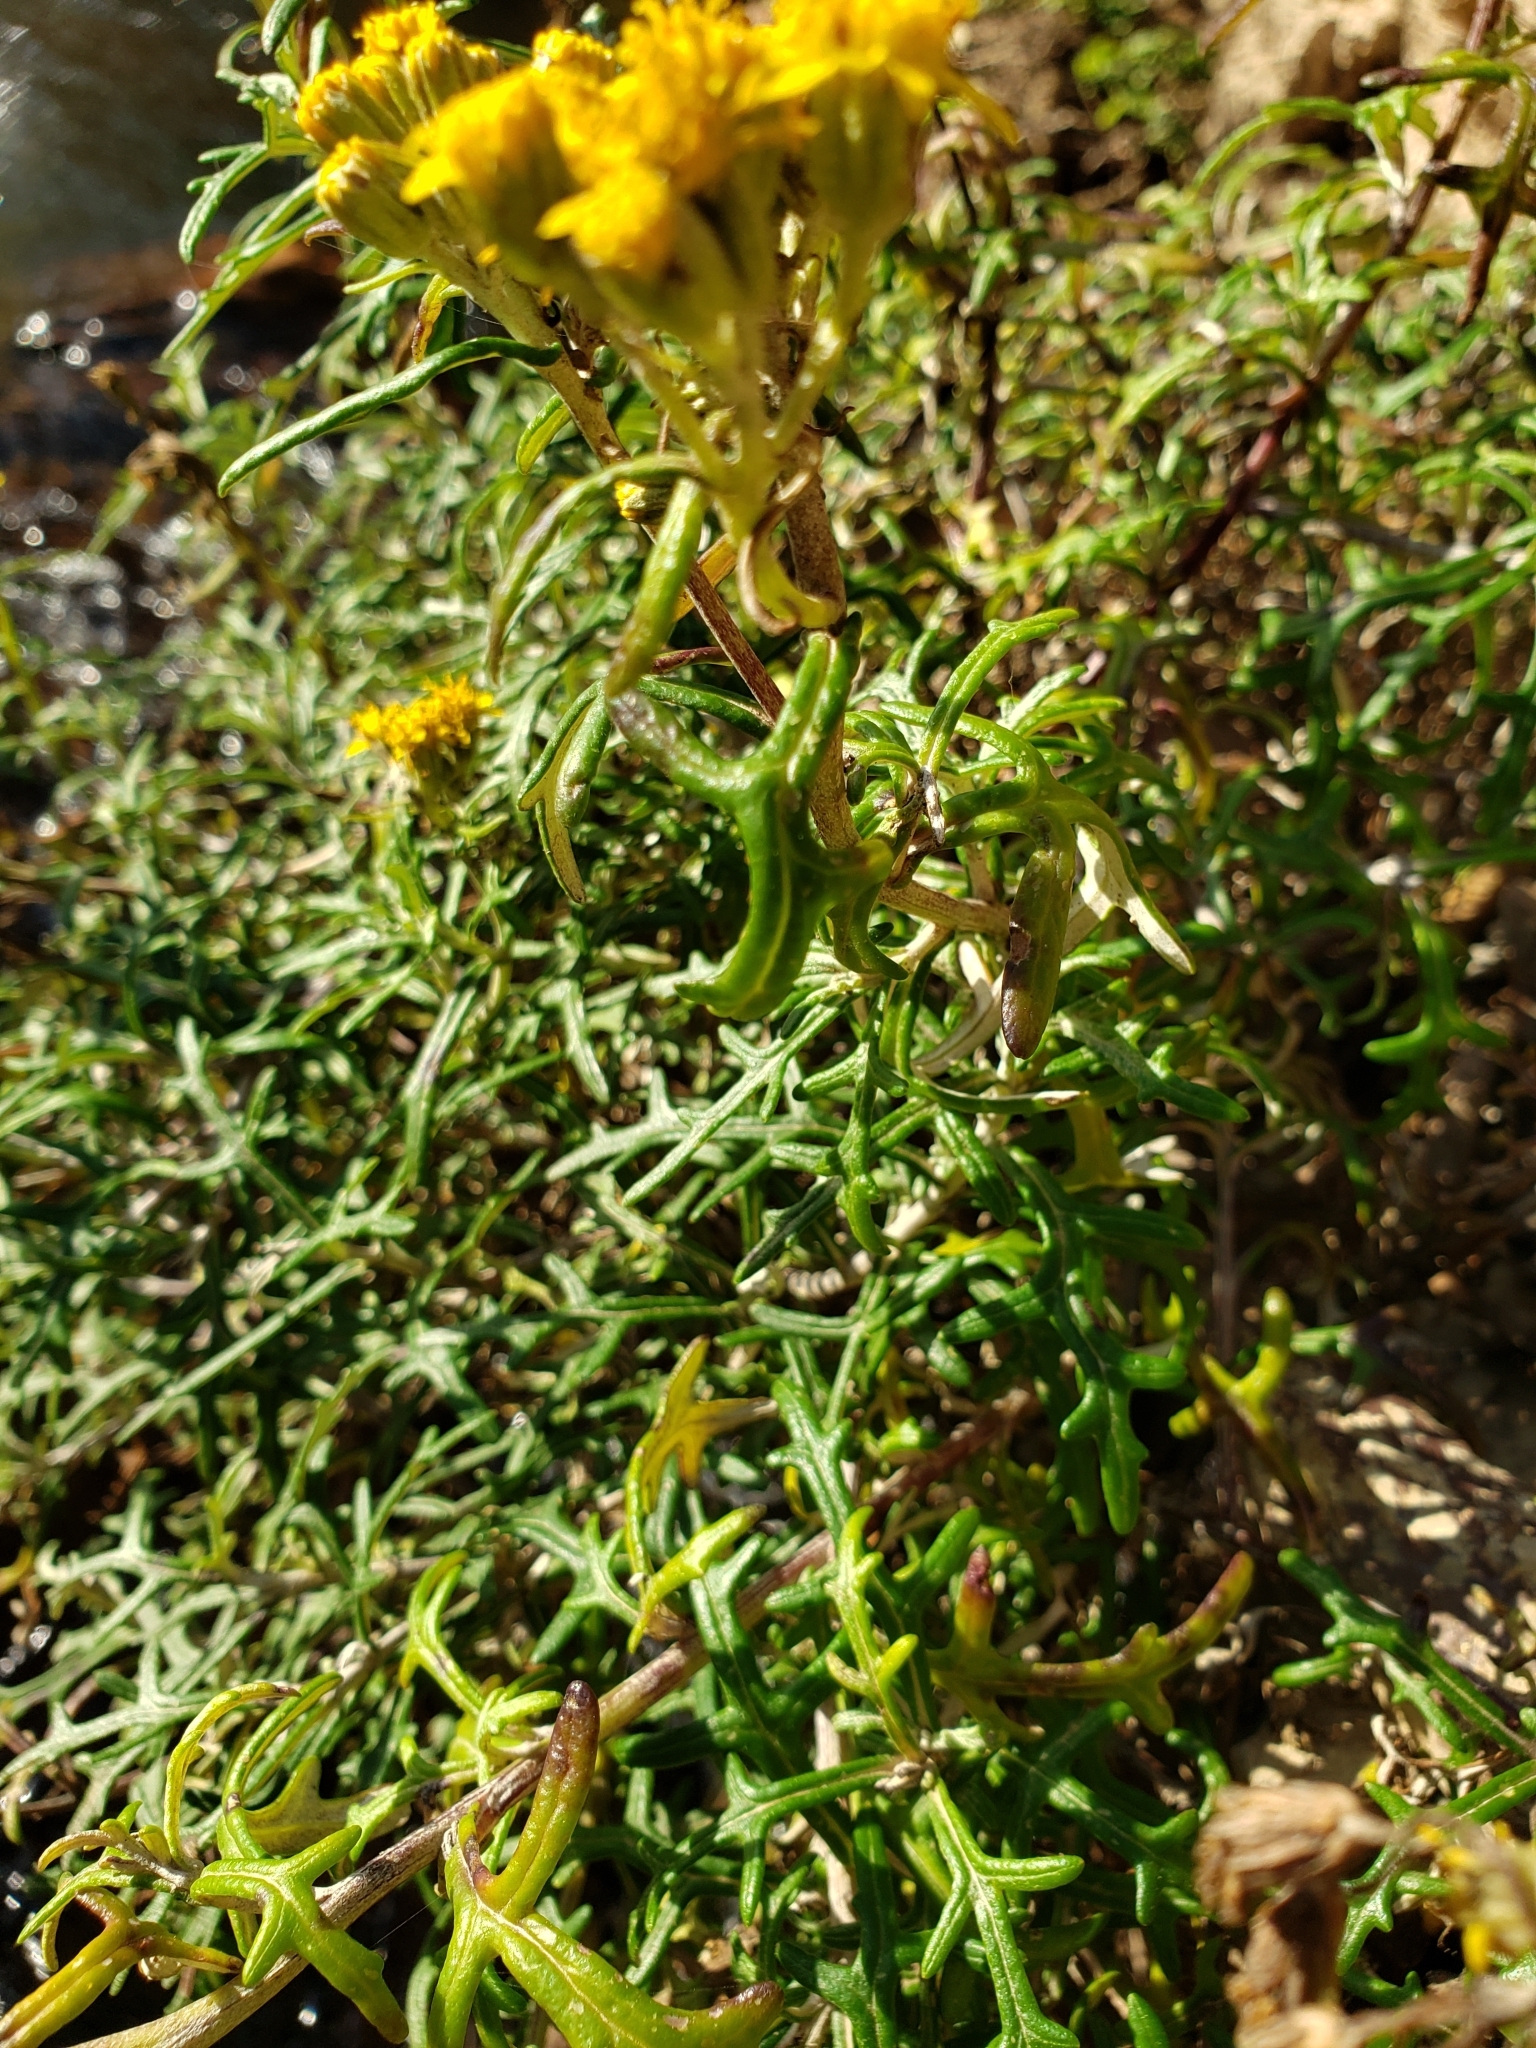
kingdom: Plantae
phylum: Tracheophyta
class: Magnoliopsida
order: Asterales
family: Asteraceae
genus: Eriophyllum
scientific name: Eriophyllum staechadifolium
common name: Lizardtail
